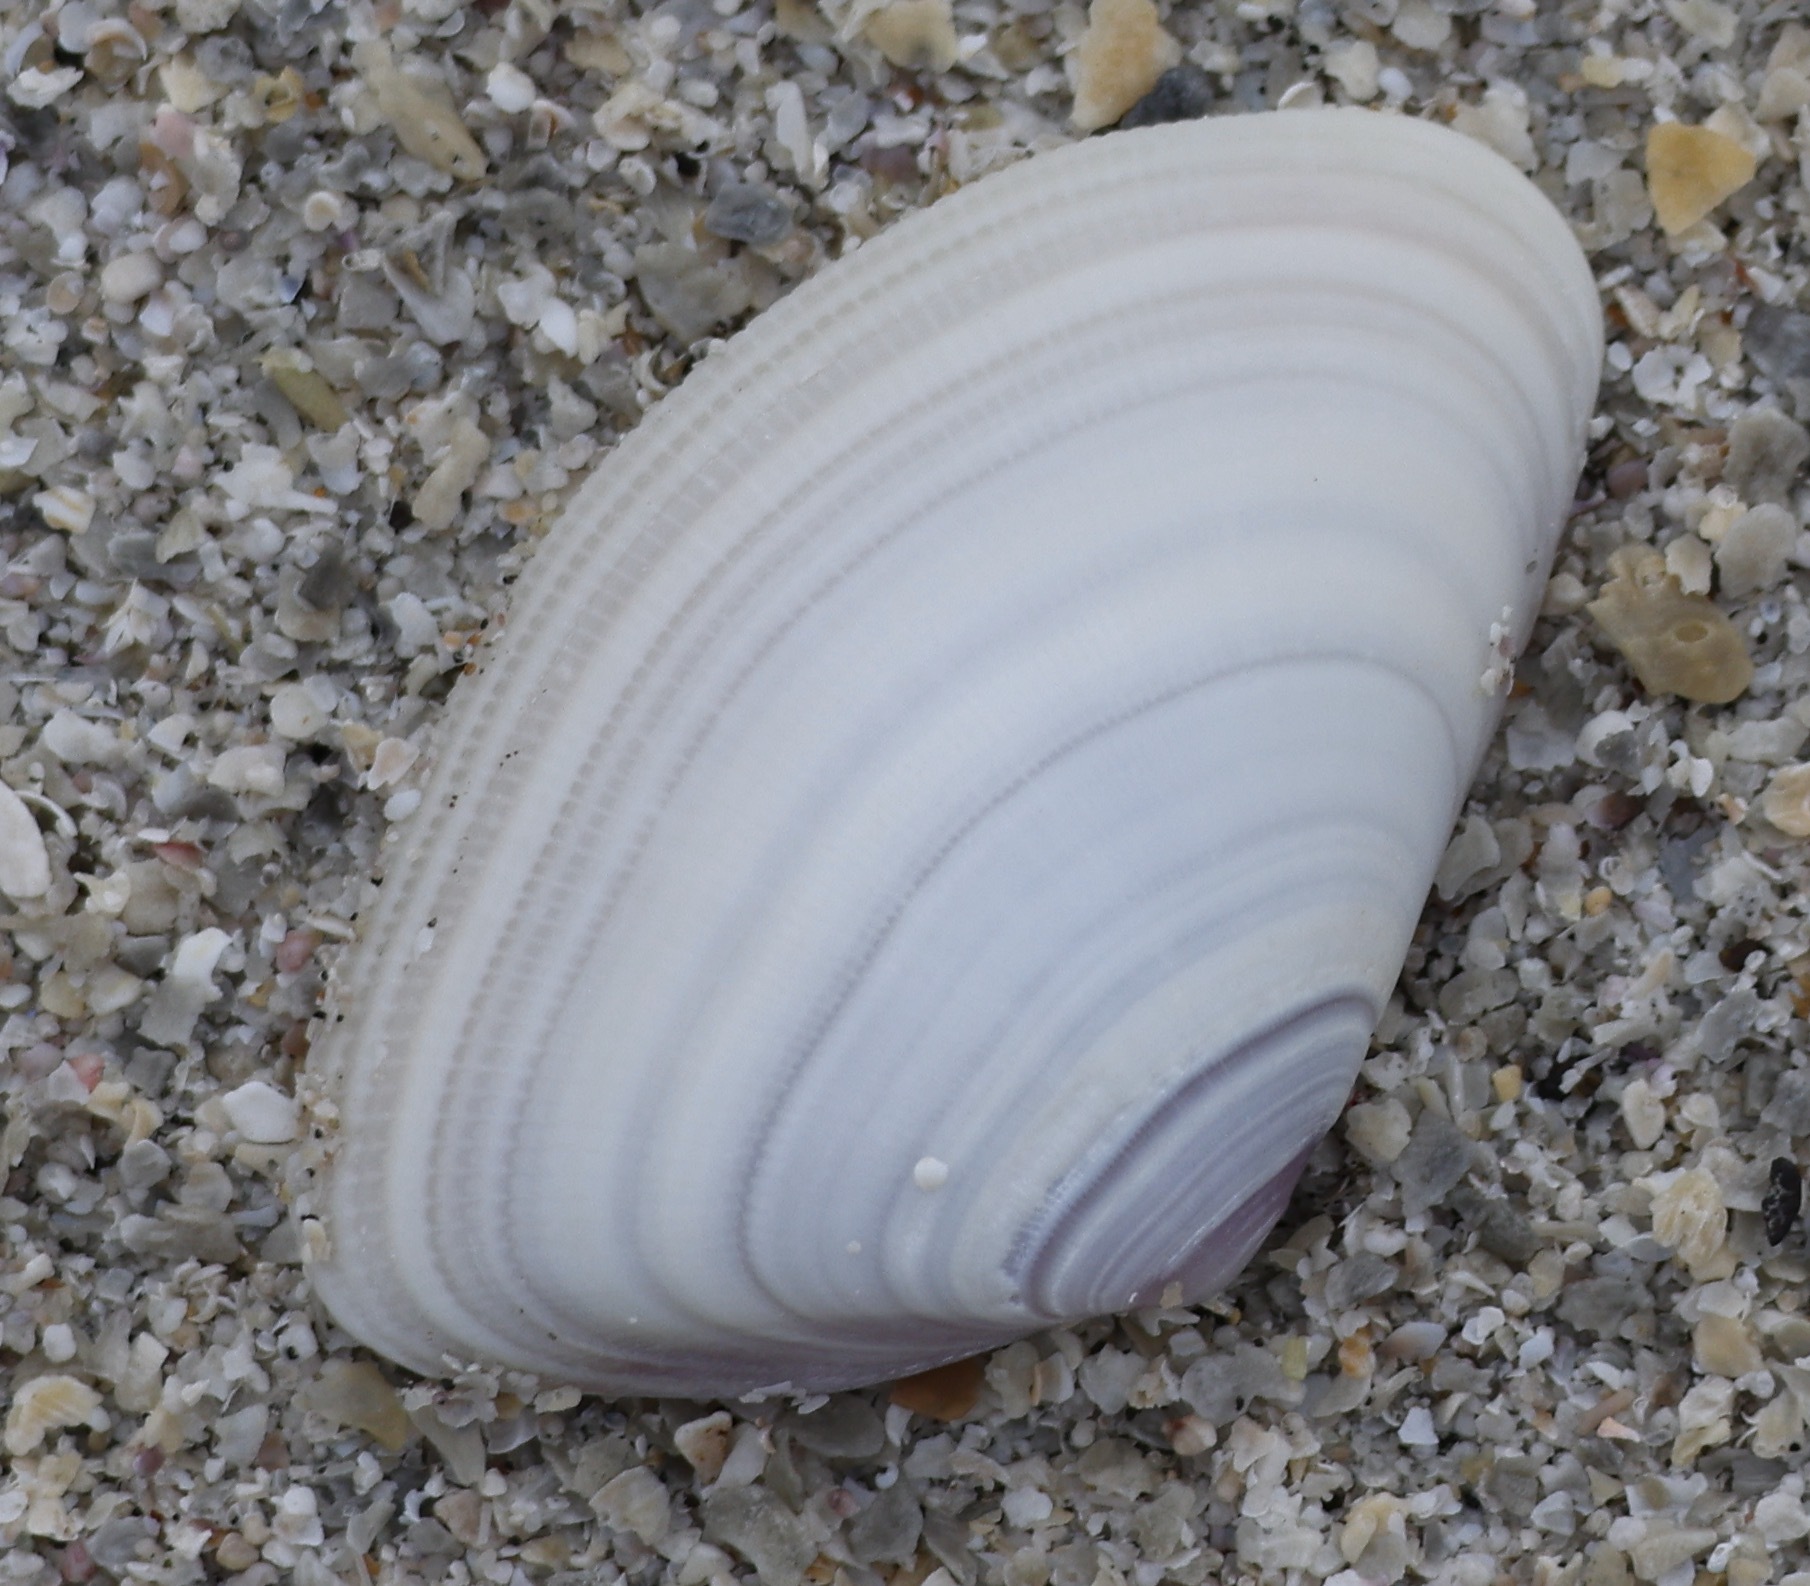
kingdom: Animalia
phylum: Mollusca
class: Bivalvia
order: Cardiida
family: Donacidae
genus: Donax
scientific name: Donax vittatus
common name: Banded wedge-shell
